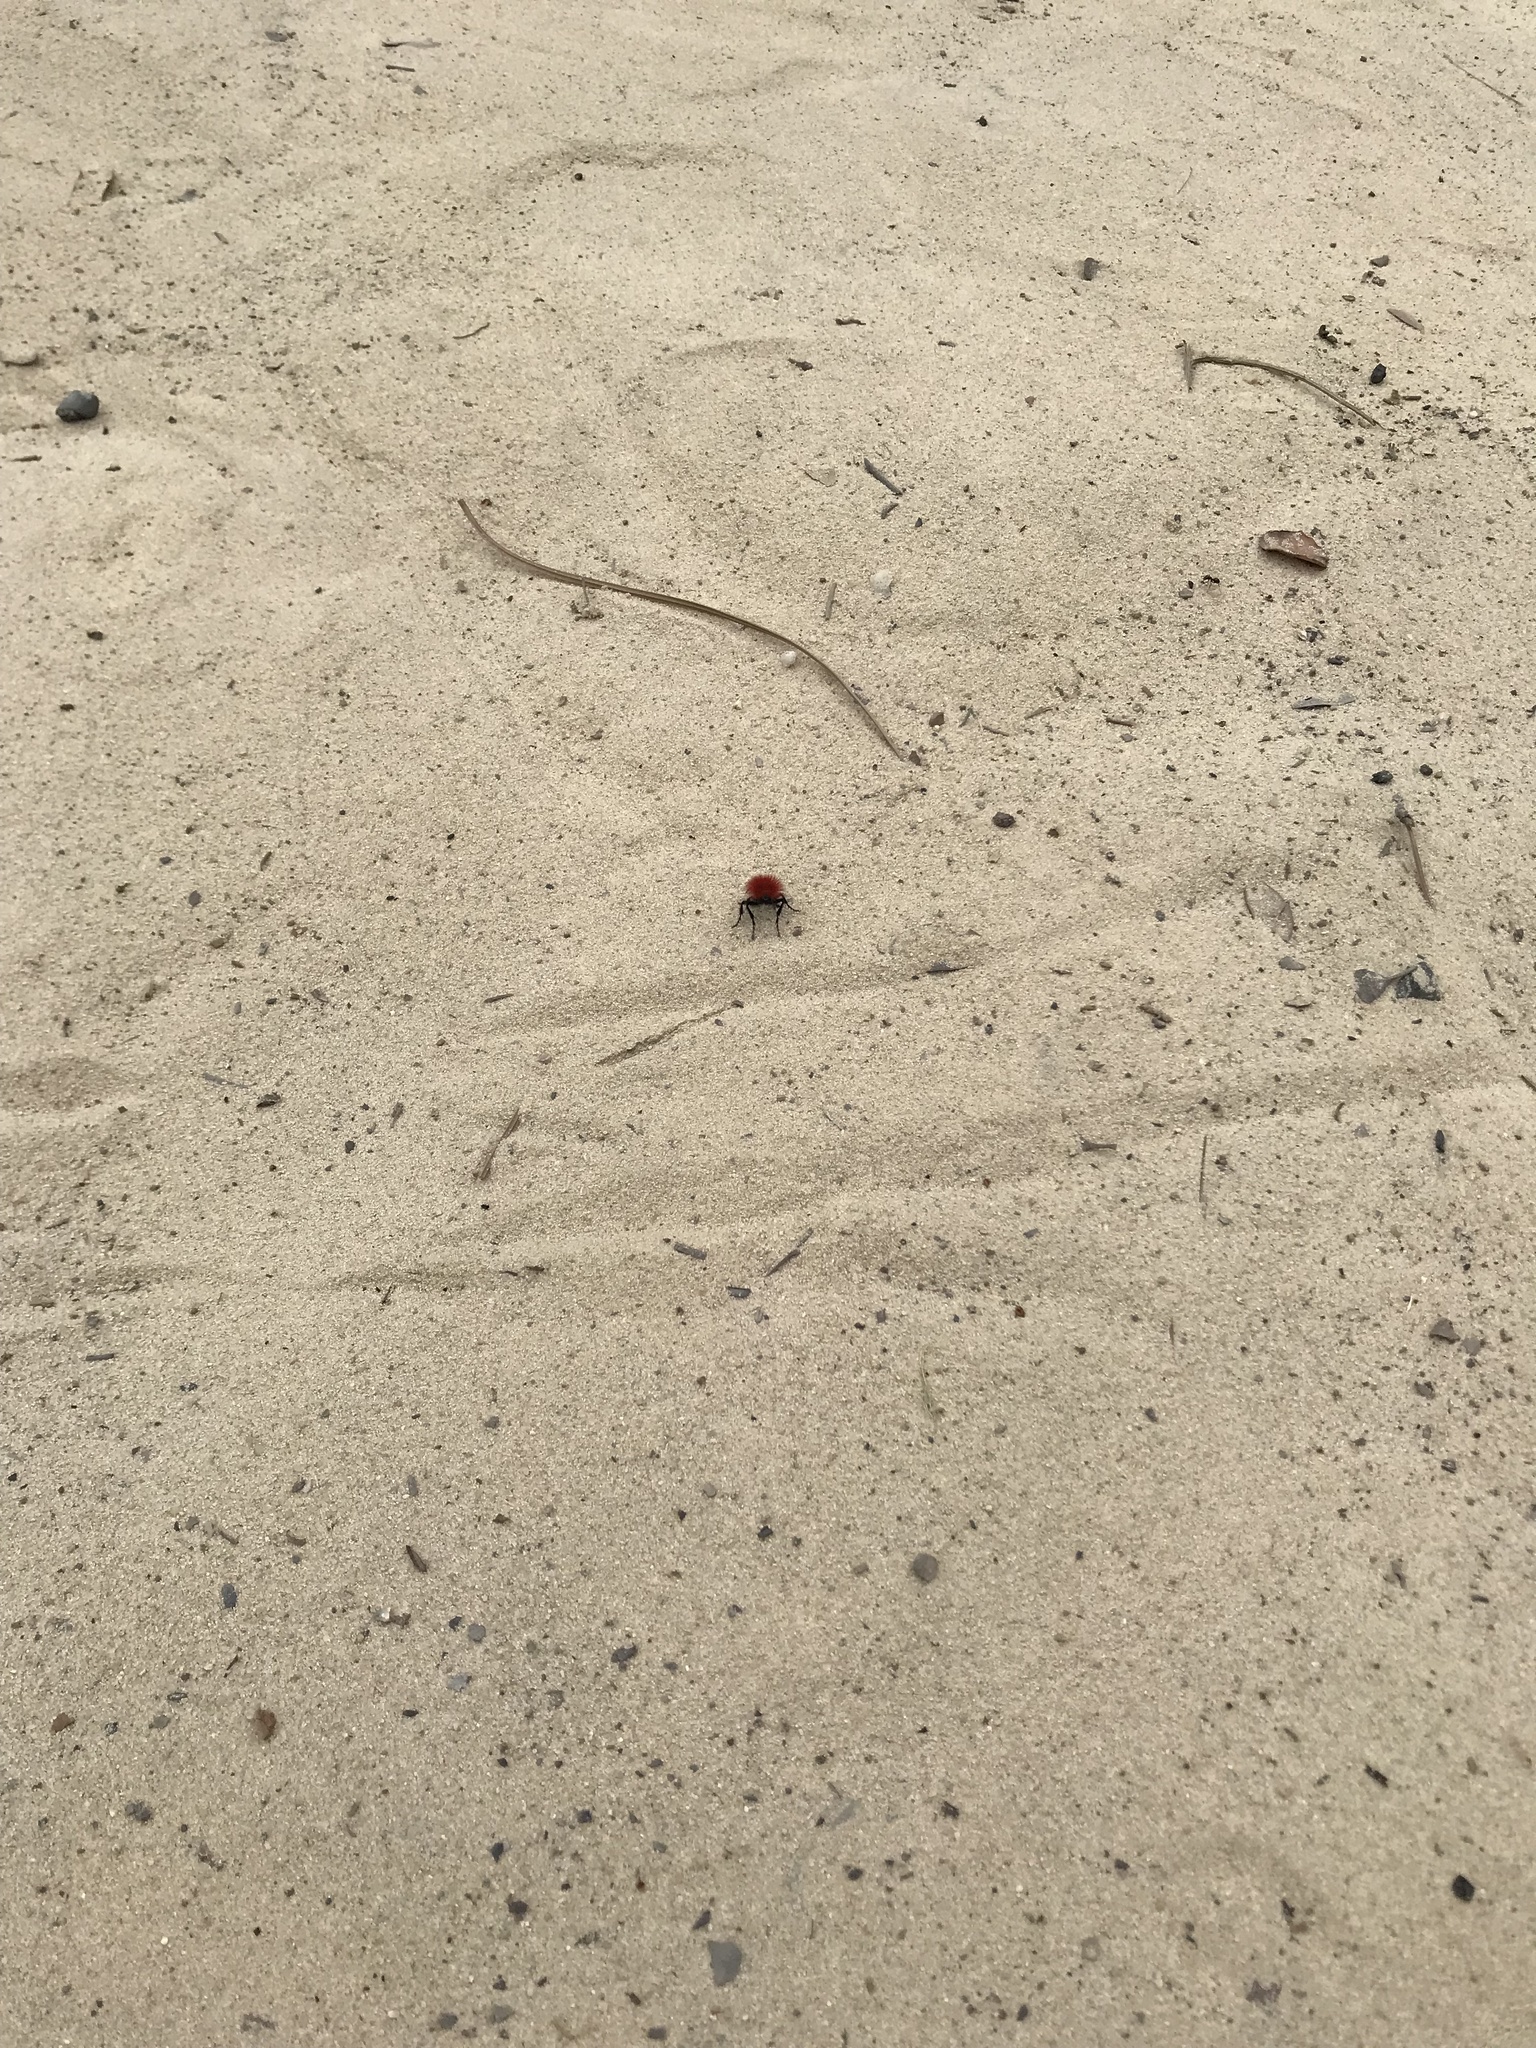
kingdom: Animalia
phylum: Arthropoda
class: Insecta
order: Hymenoptera
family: Mutillidae
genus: Dasymutilla
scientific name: Dasymutilla flammifera
